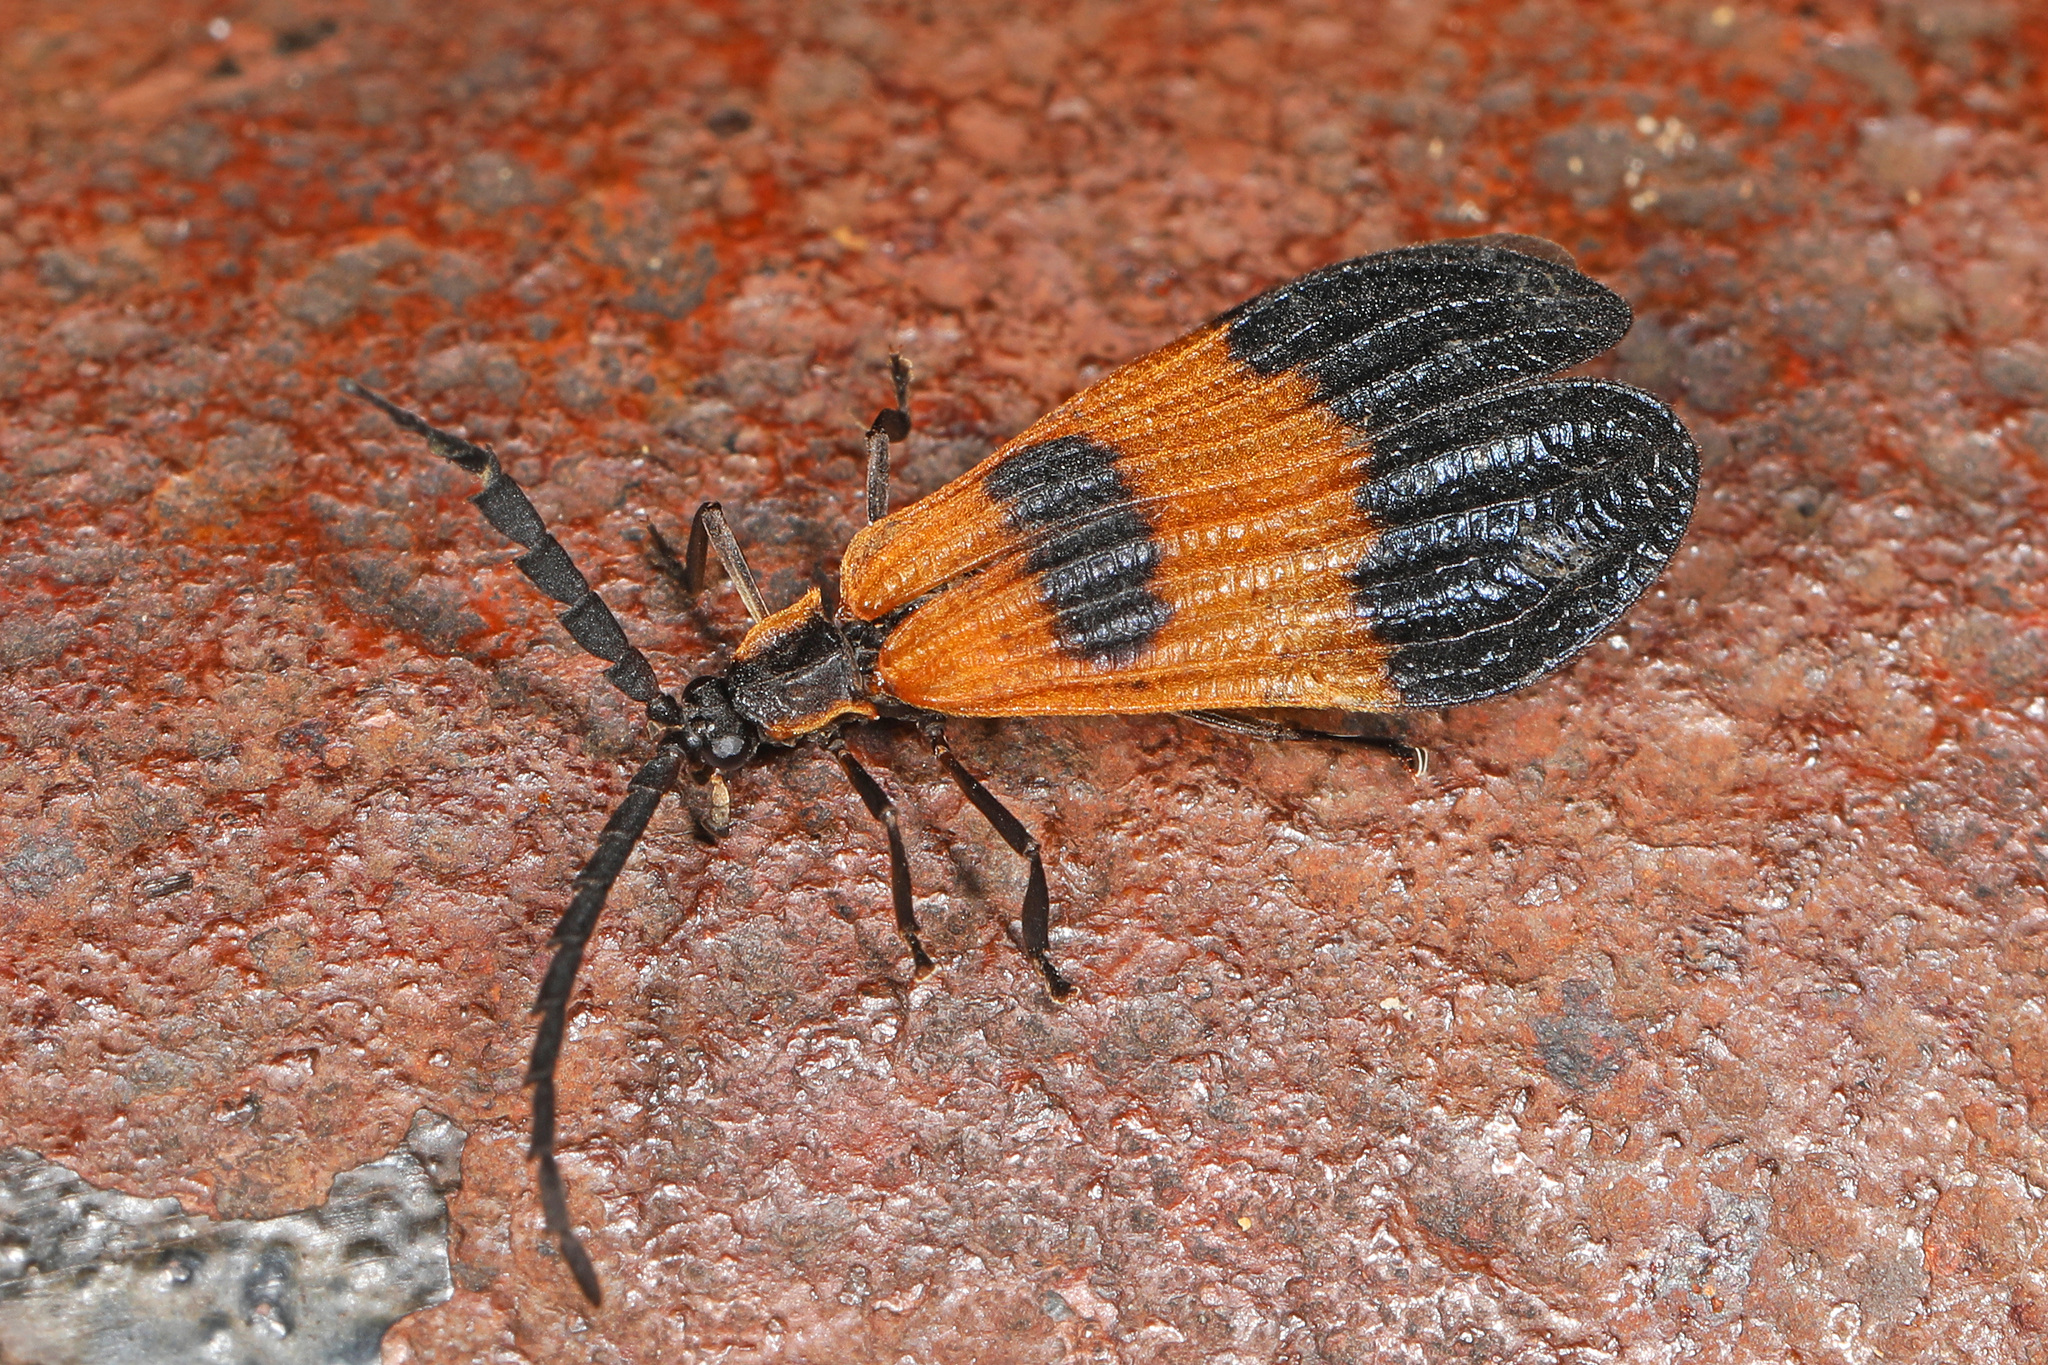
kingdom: Animalia
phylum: Arthropoda
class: Insecta
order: Coleoptera
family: Lycidae
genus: Calopteron
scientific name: Calopteron terminale
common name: End band net-winged beetle
